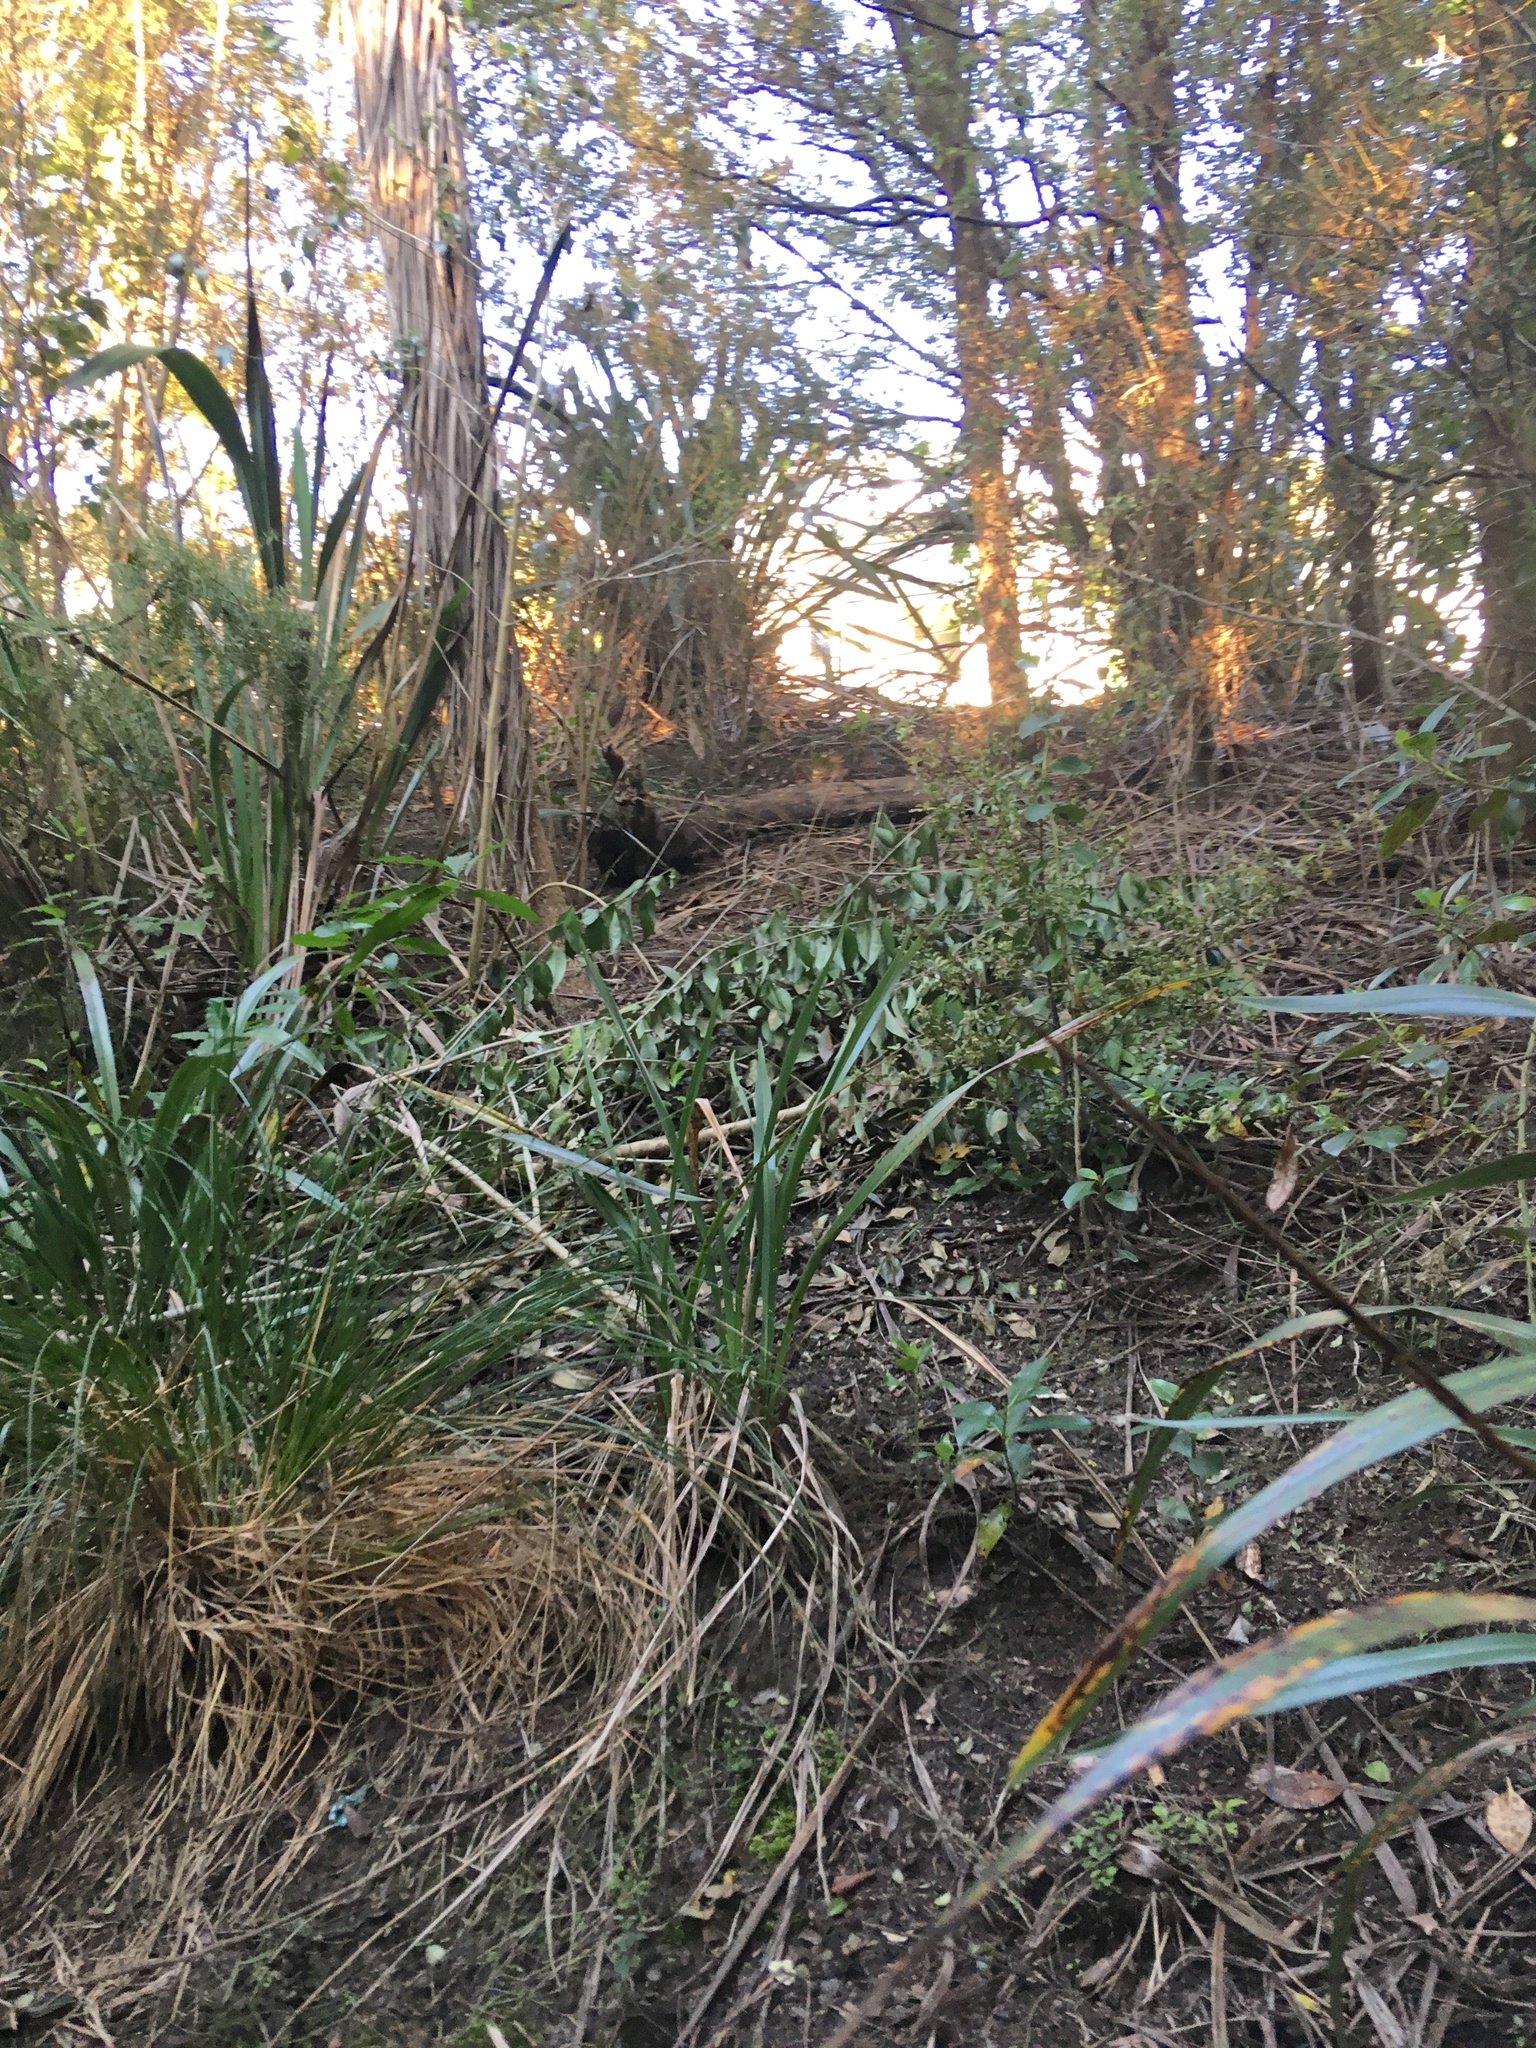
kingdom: Plantae
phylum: Tracheophyta
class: Magnoliopsida
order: Lamiales
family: Oleaceae
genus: Ligustrum
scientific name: Ligustrum lucidum
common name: Glossy privet
